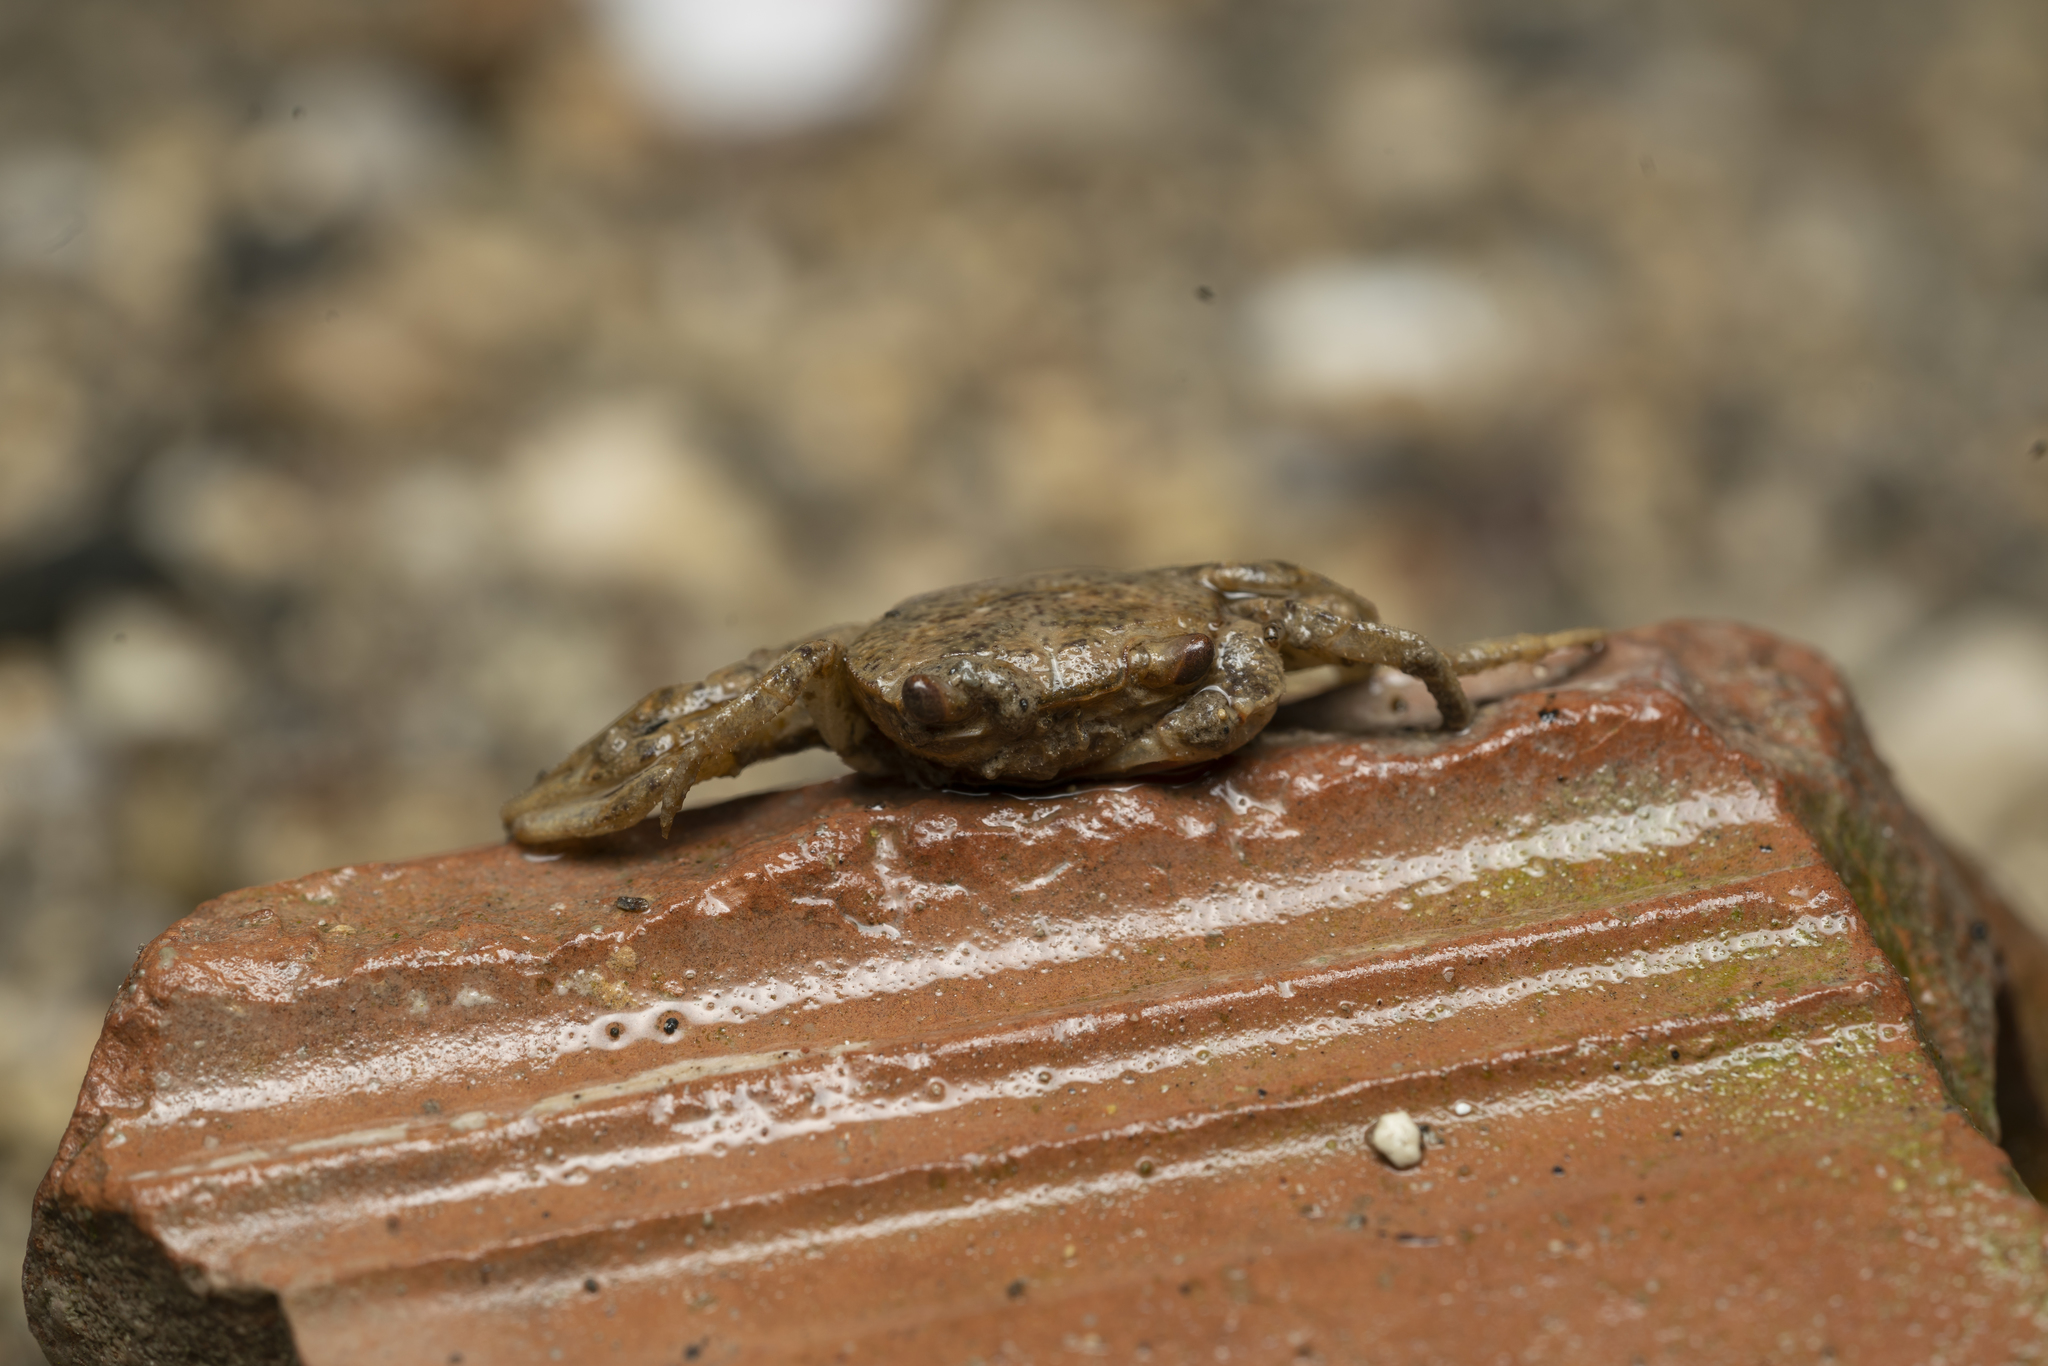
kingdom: Animalia
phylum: Arthropoda
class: Malacostraca
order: Decapoda
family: Potamidae
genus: Potamon
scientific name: Potamon rhodium
